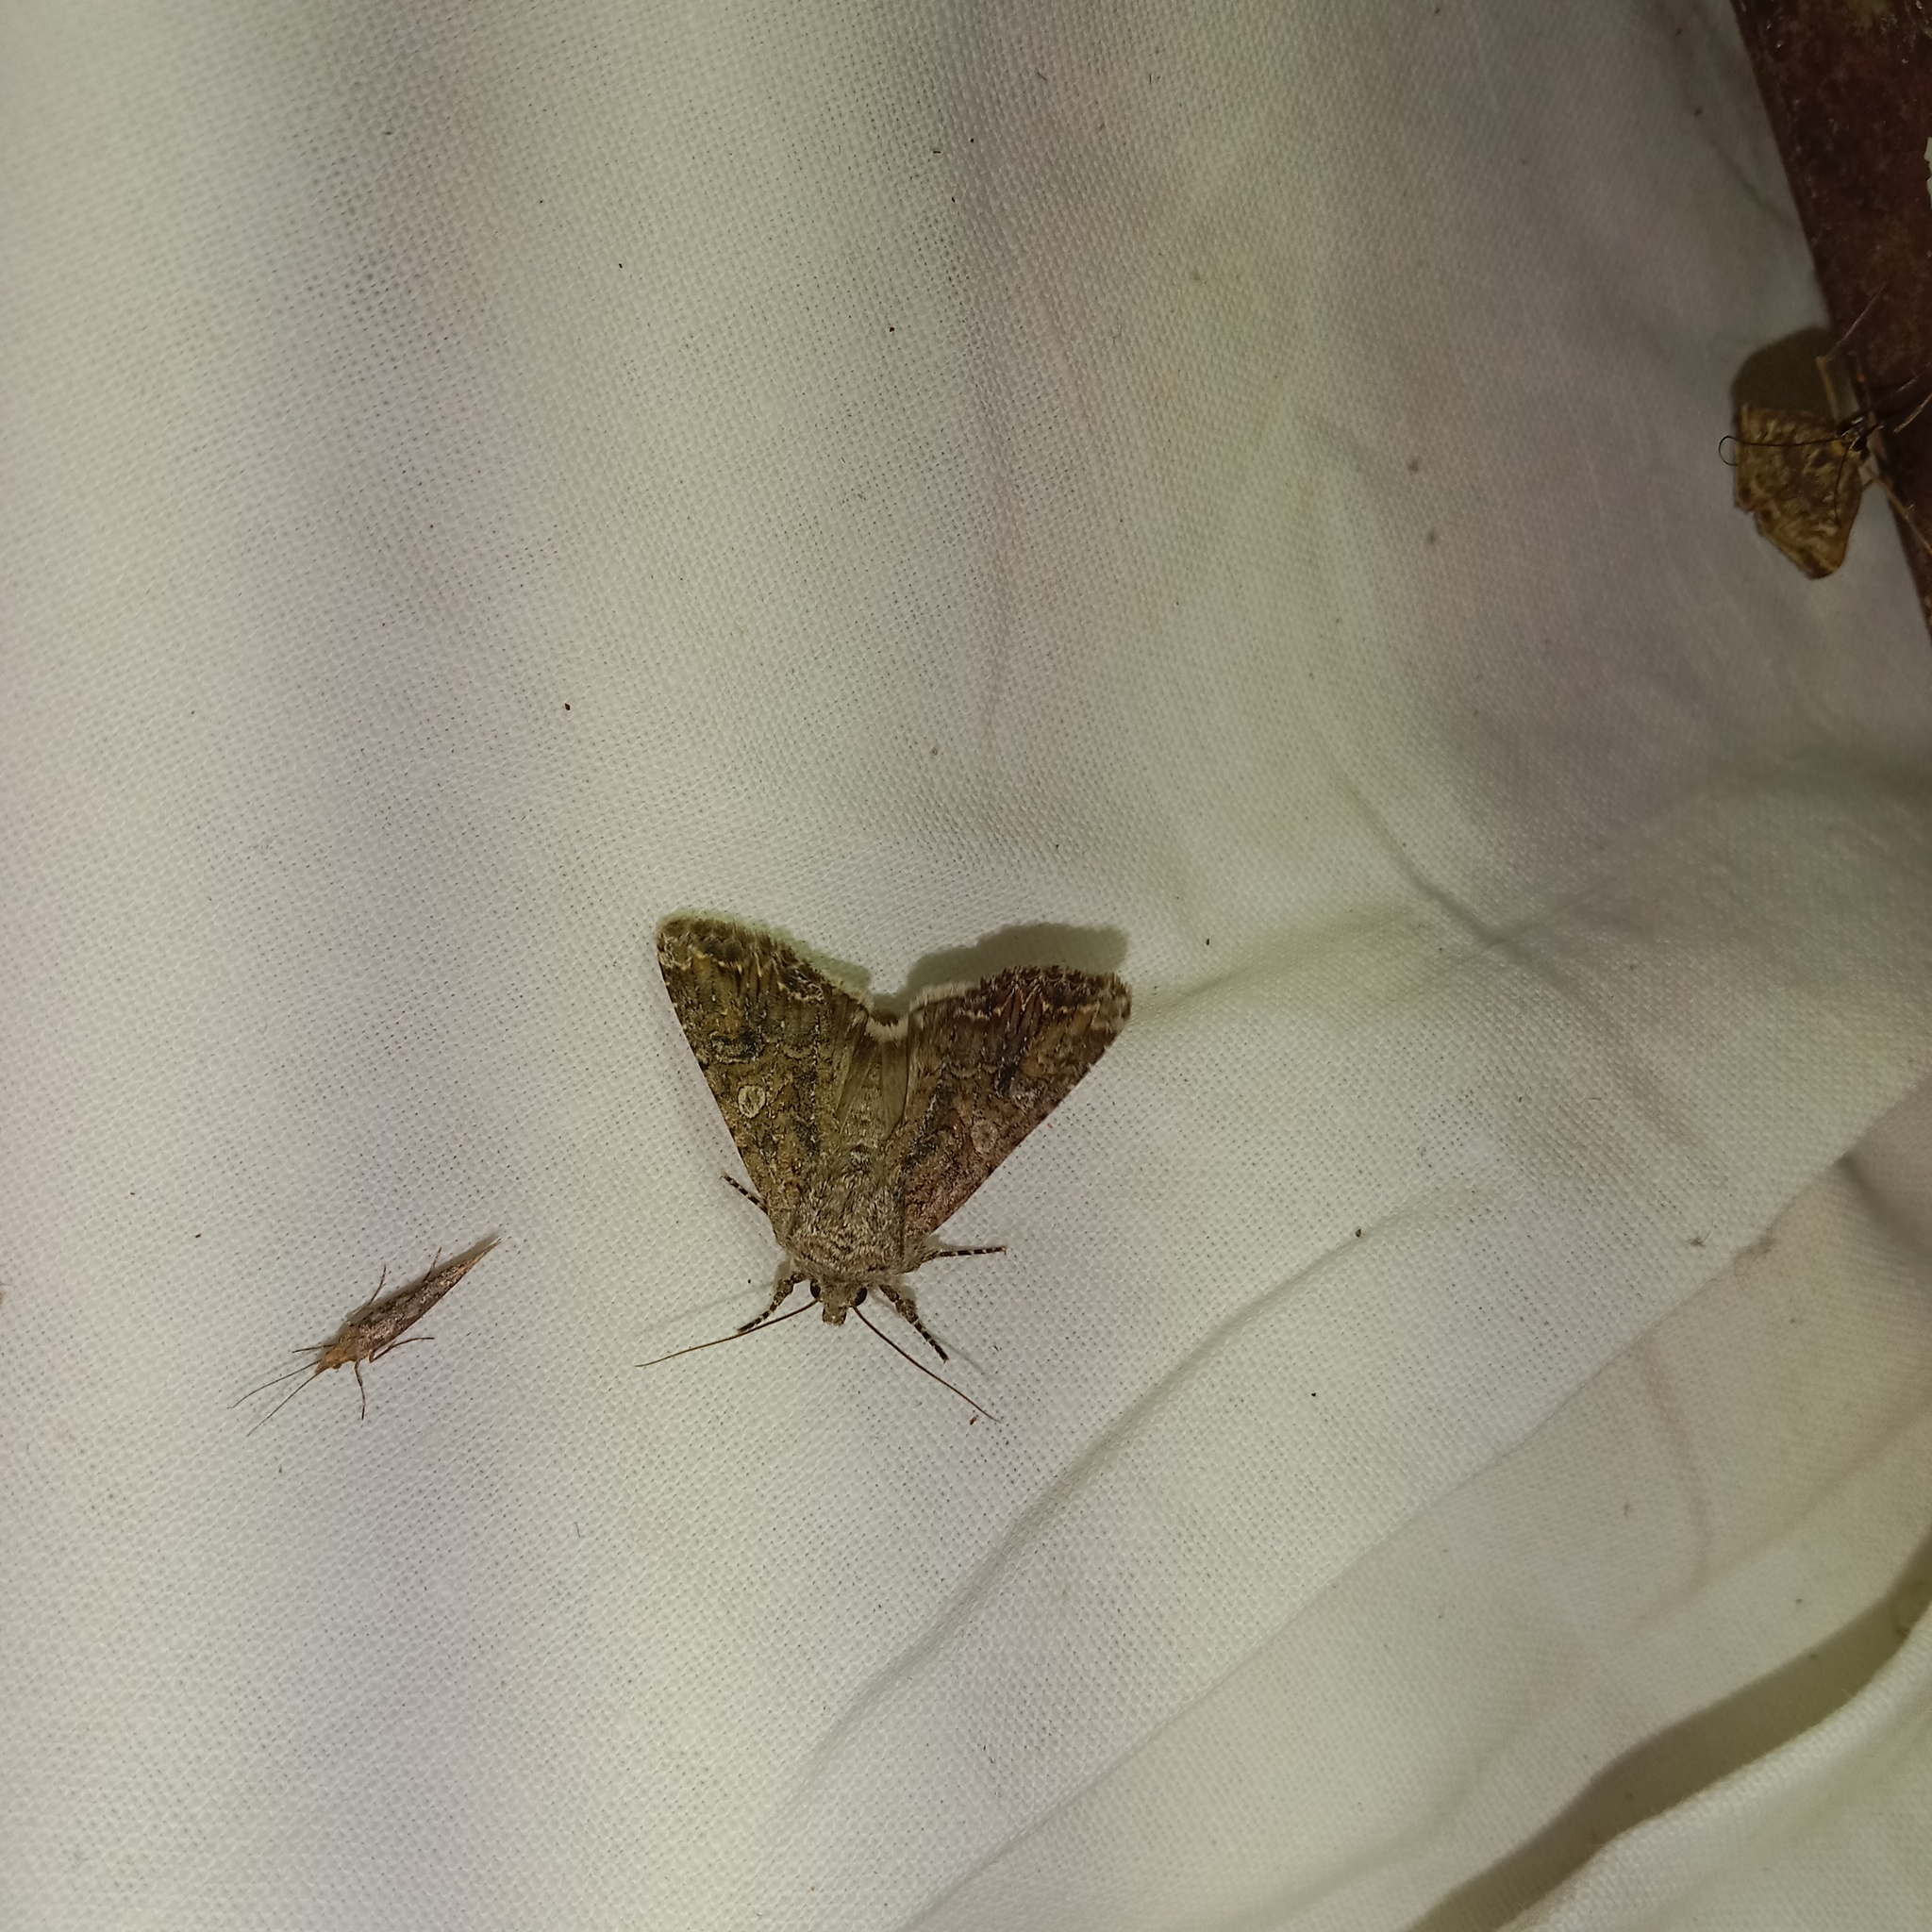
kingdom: Animalia
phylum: Arthropoda
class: Insecta
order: Lepidoptera
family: Noctuidae
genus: Anarta
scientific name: Anarta trifolii
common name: Clover cutworm moth
